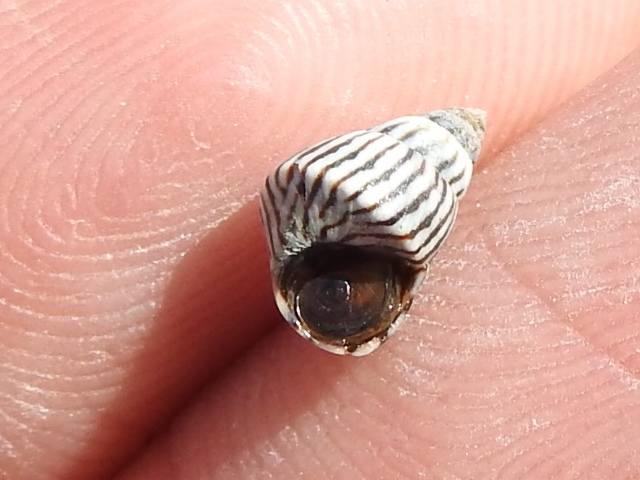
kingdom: Animalia
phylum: Mollusca
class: Gastropoda
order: Littorinimorpha
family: Littorinidae
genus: Echinolittorina
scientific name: Echinolittorina angustior
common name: Slender periwinkle
